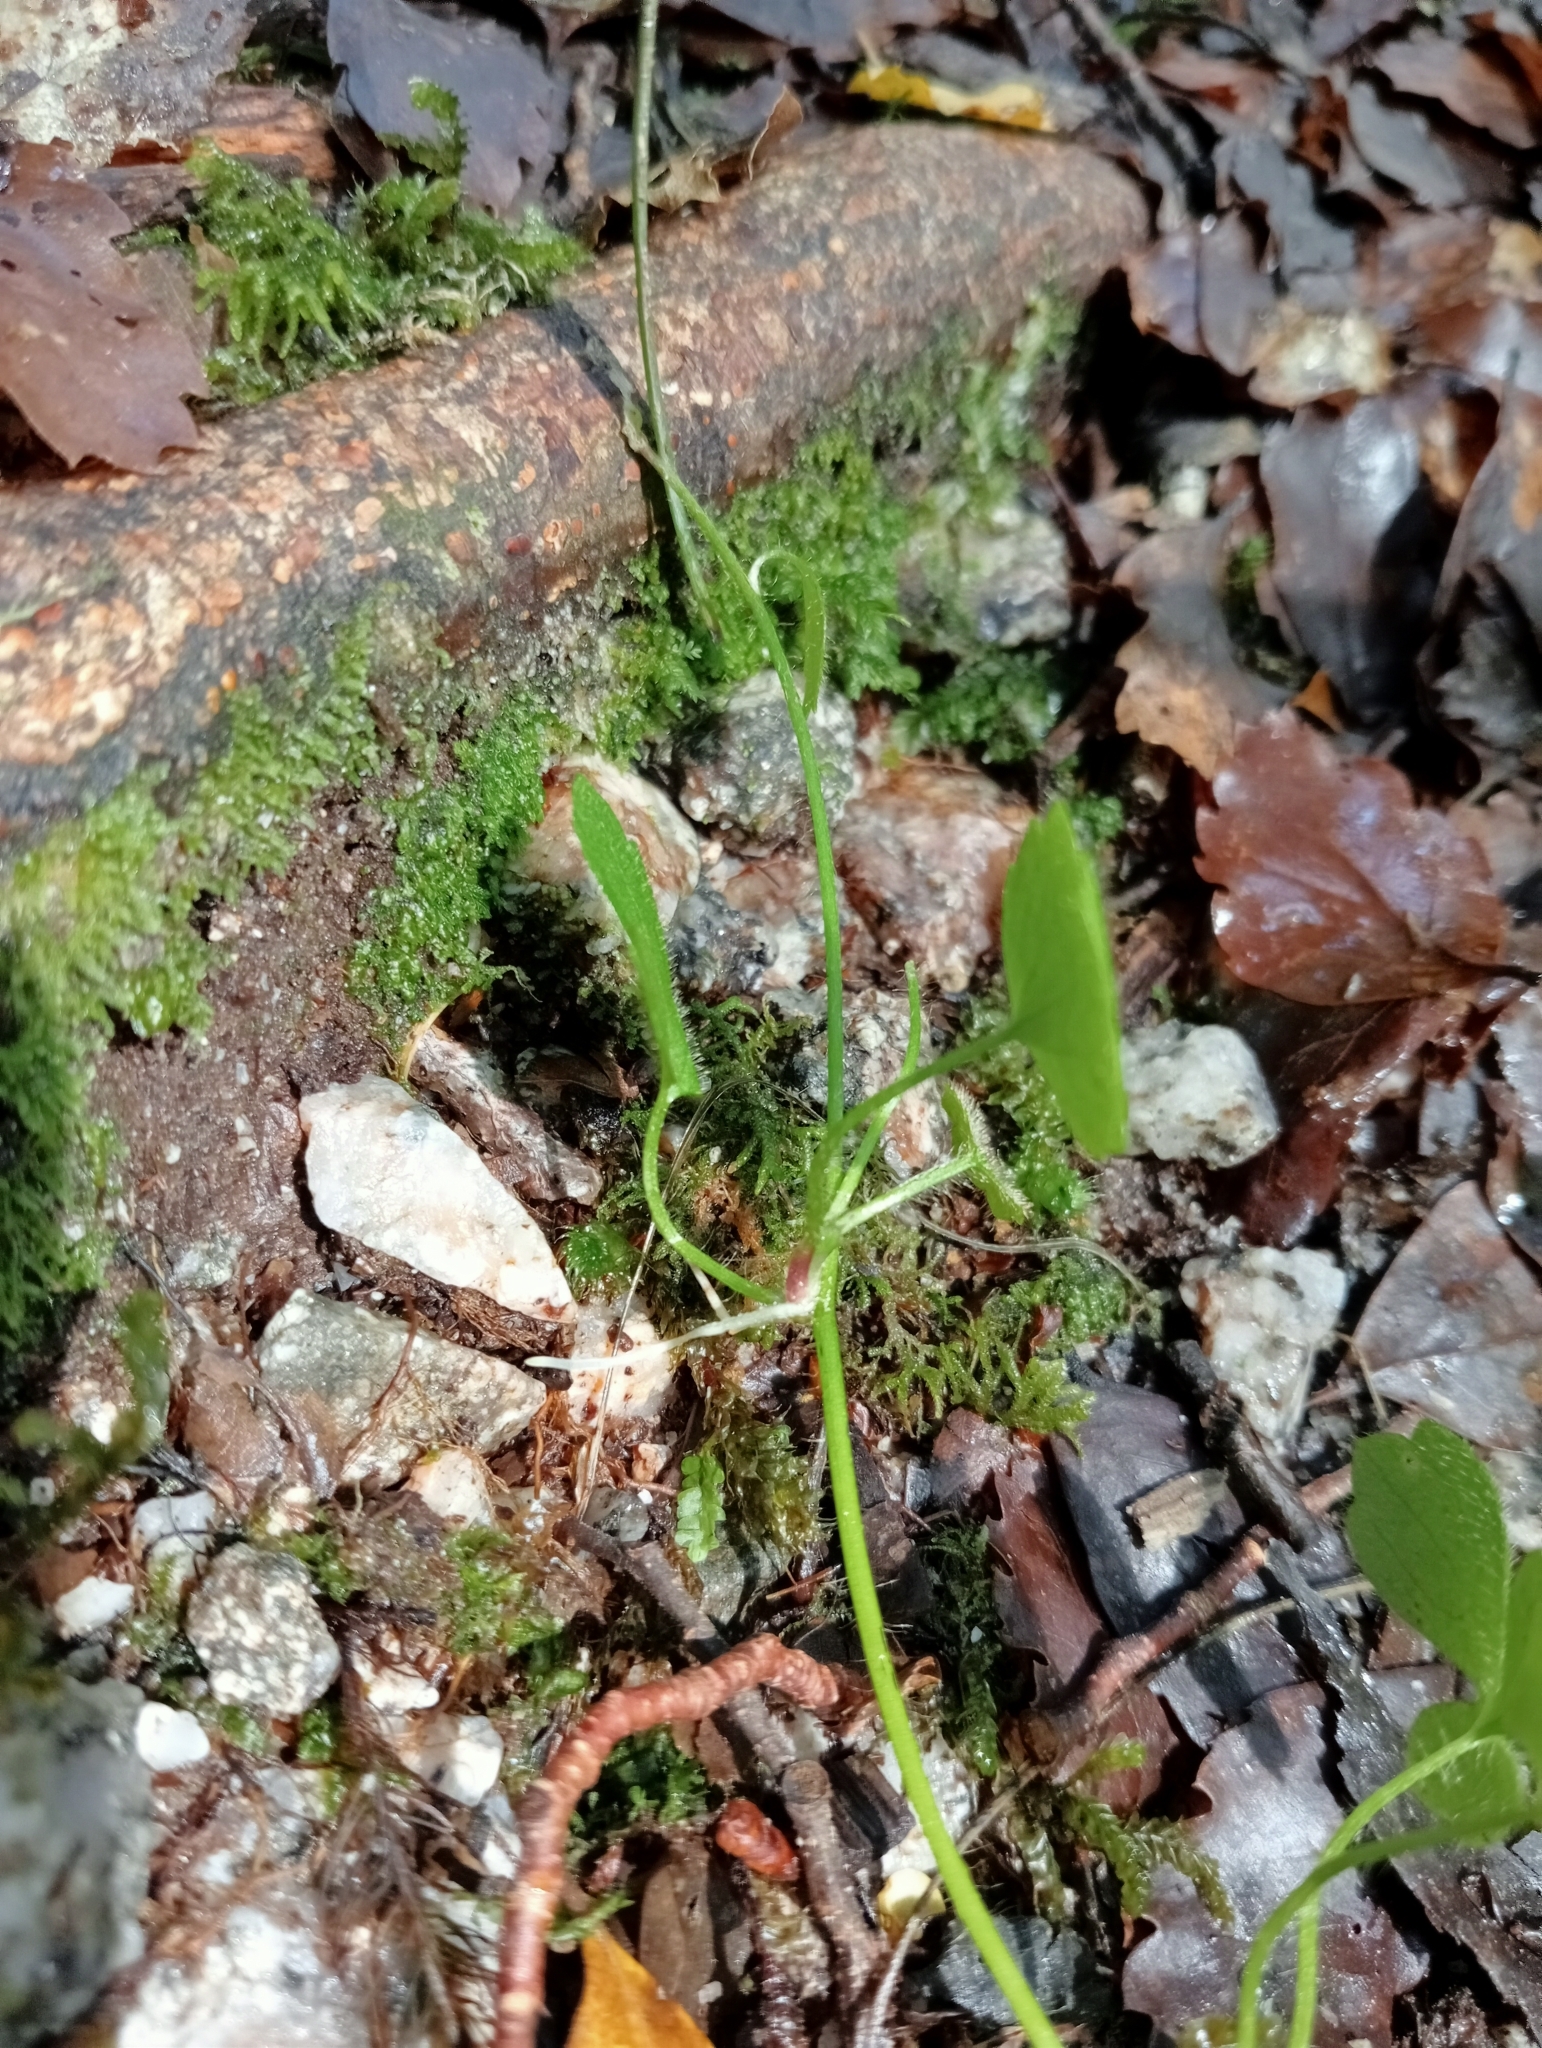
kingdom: Plantae
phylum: Tracheophyta
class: Magnoliopsida
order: Ranunculales
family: Ranunculaceae
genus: Ranunculus
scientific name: Ranunculus membranifolius
